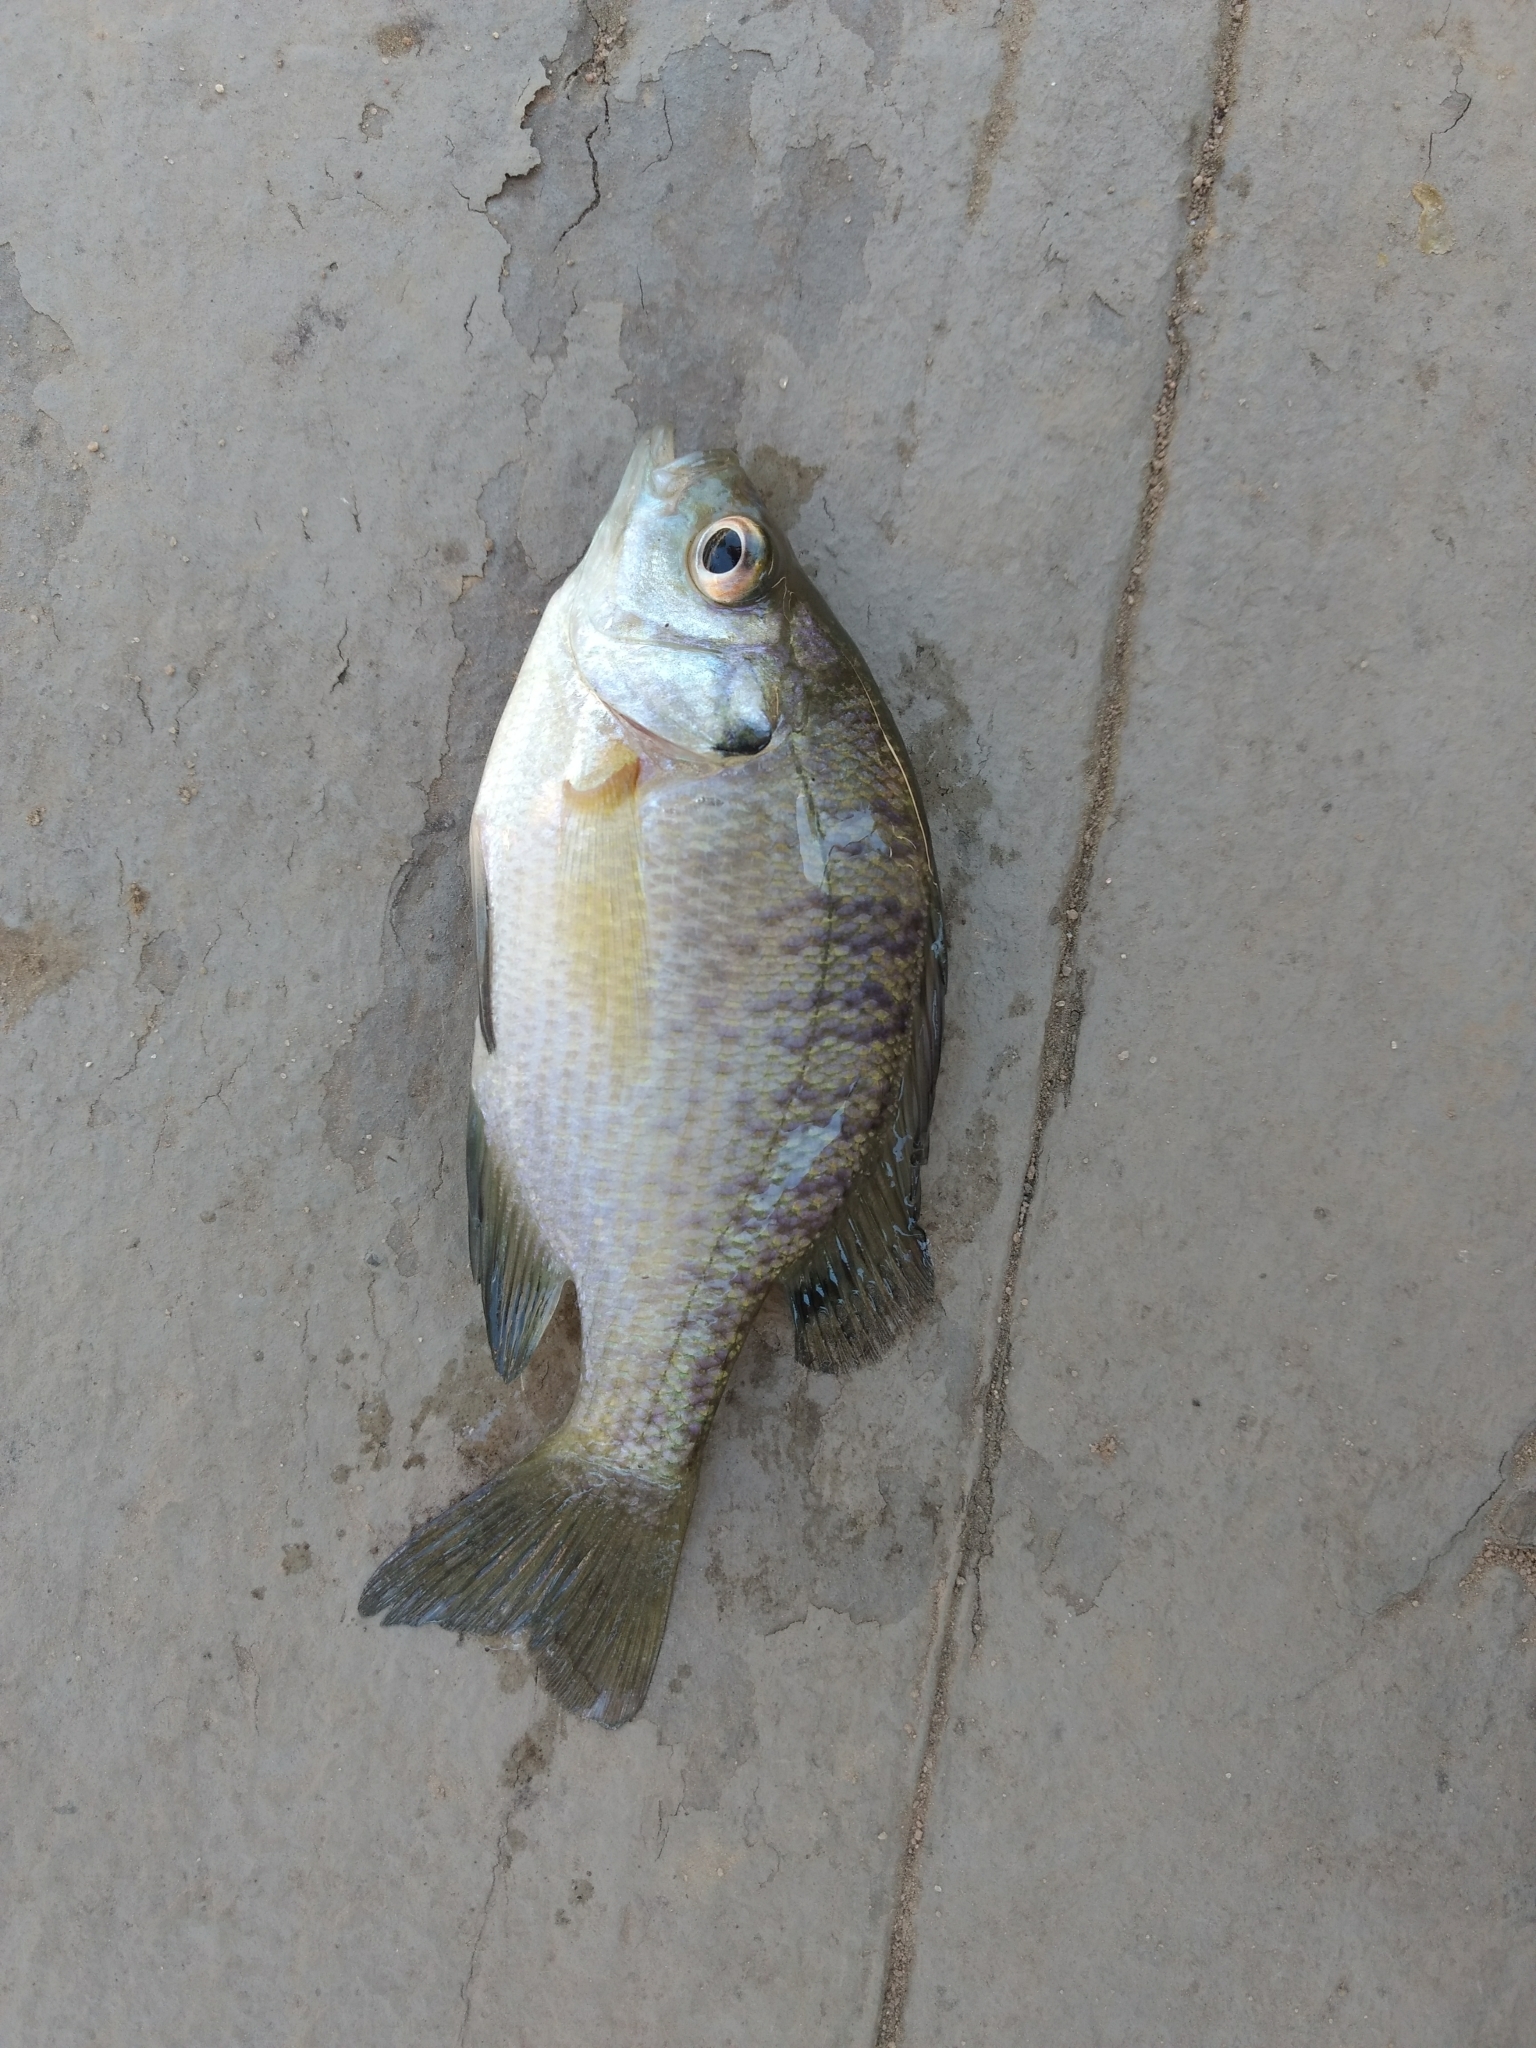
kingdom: Animalia
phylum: Chordata
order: Perciformes
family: Centrarchidae
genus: Lepomis
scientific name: Lepomis macrochirus
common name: Bluegill
